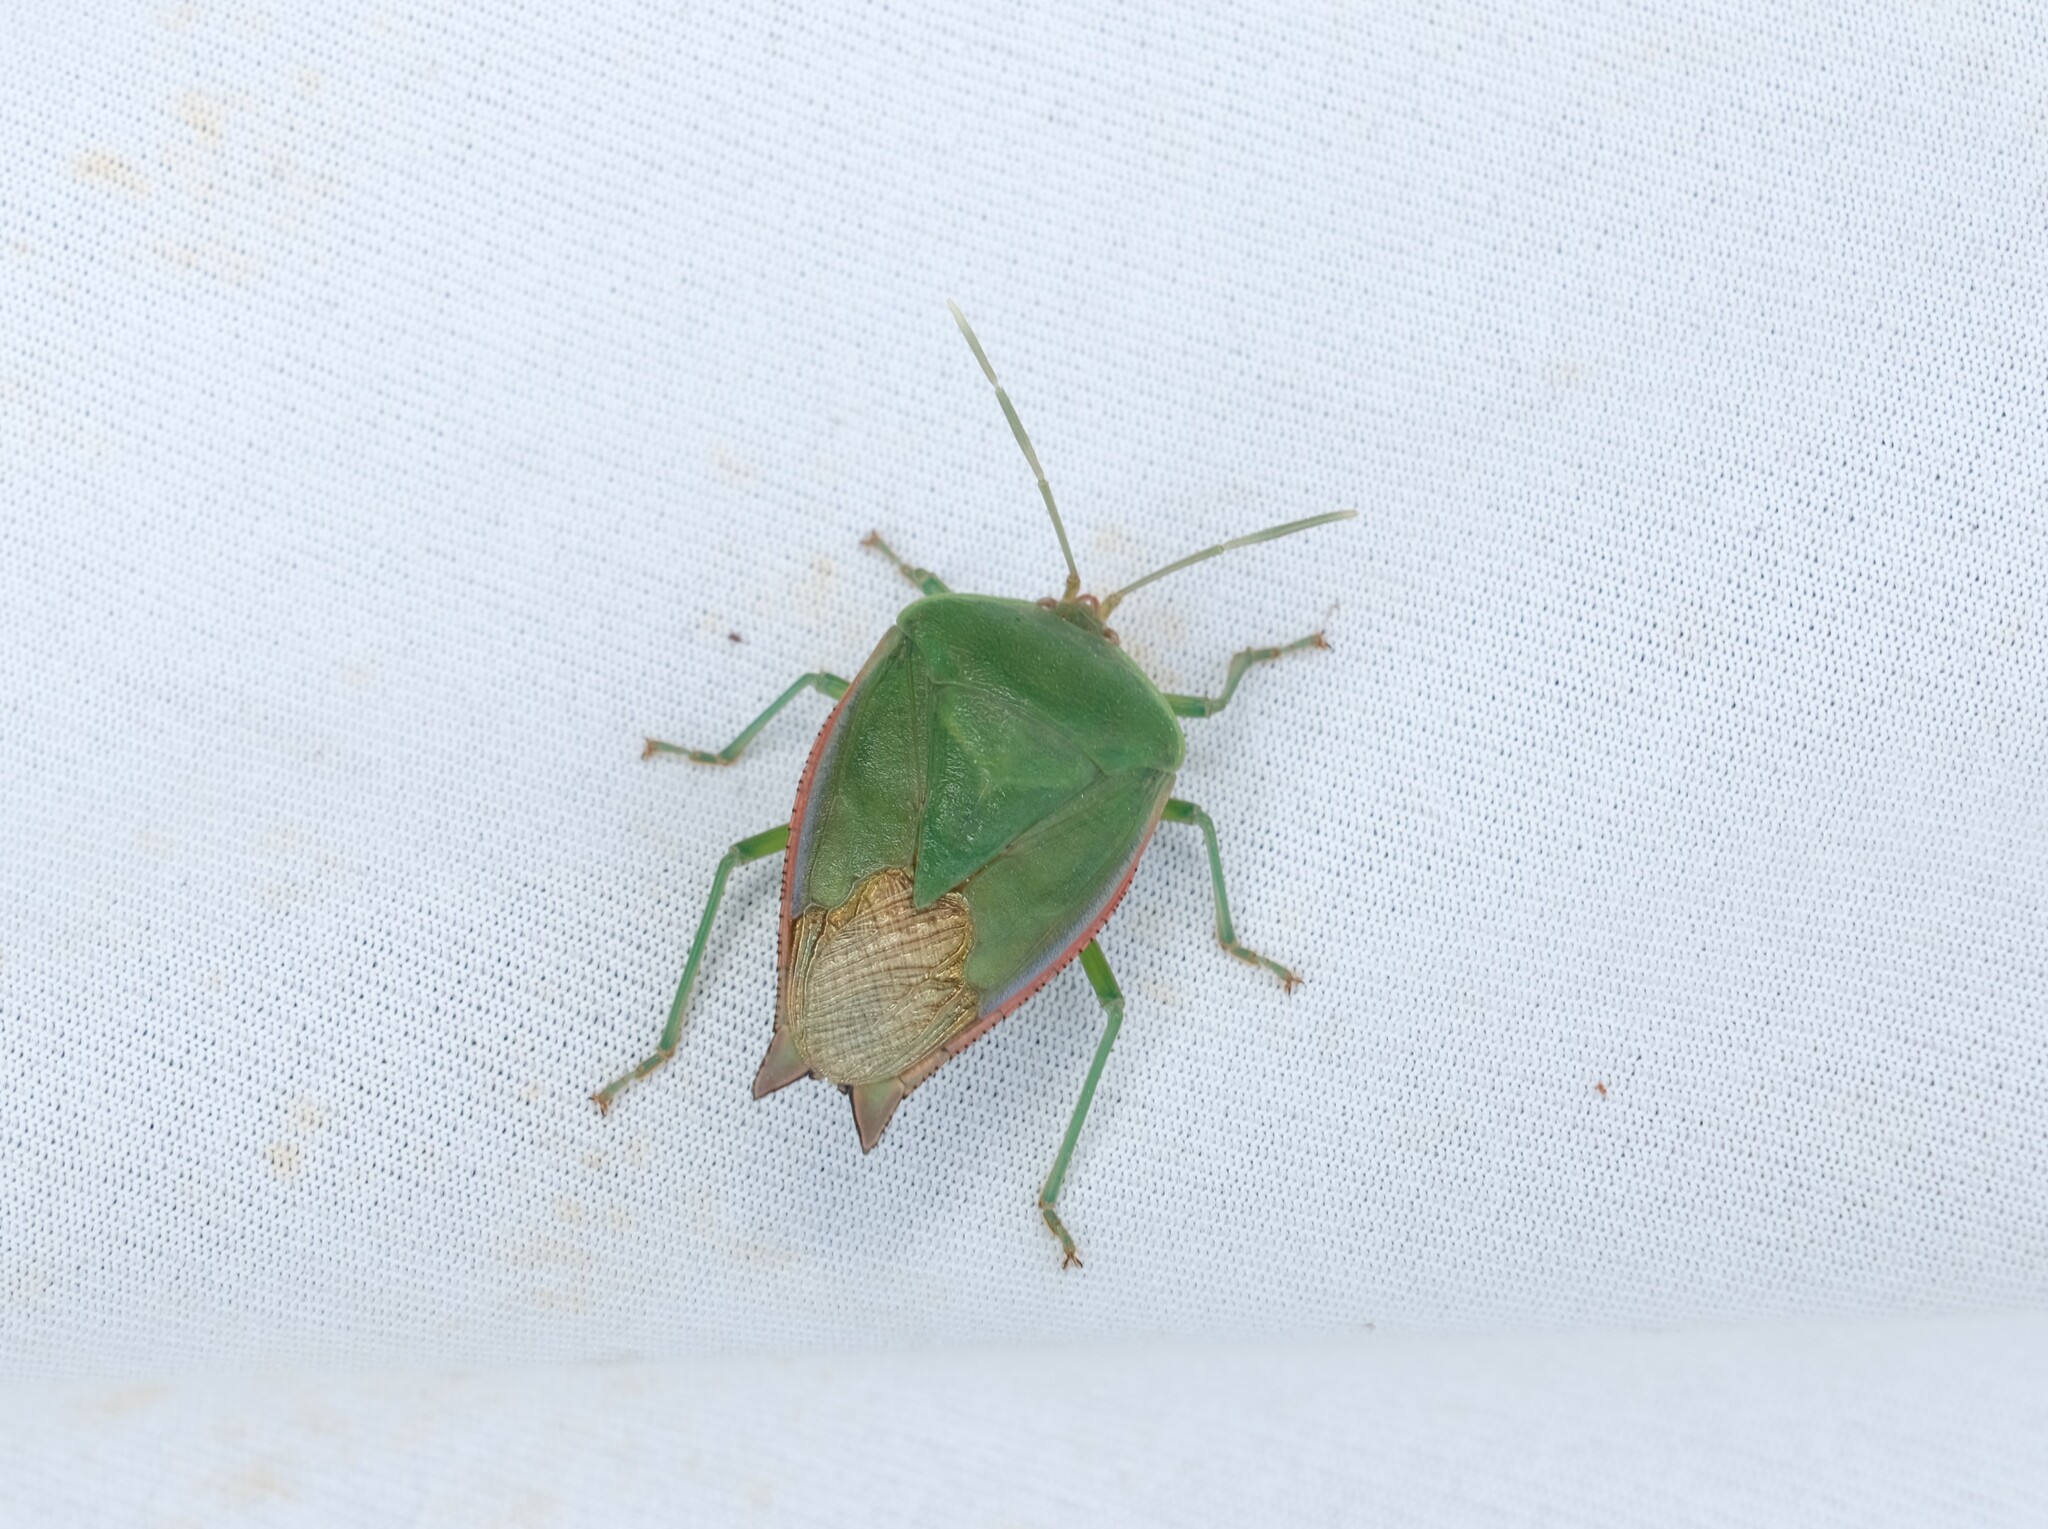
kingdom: Animalia
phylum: Arthropoda
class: Insecta
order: Hemiptera
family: Tessaratomidae
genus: Lyramorpha
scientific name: Lyramorpha rosea
